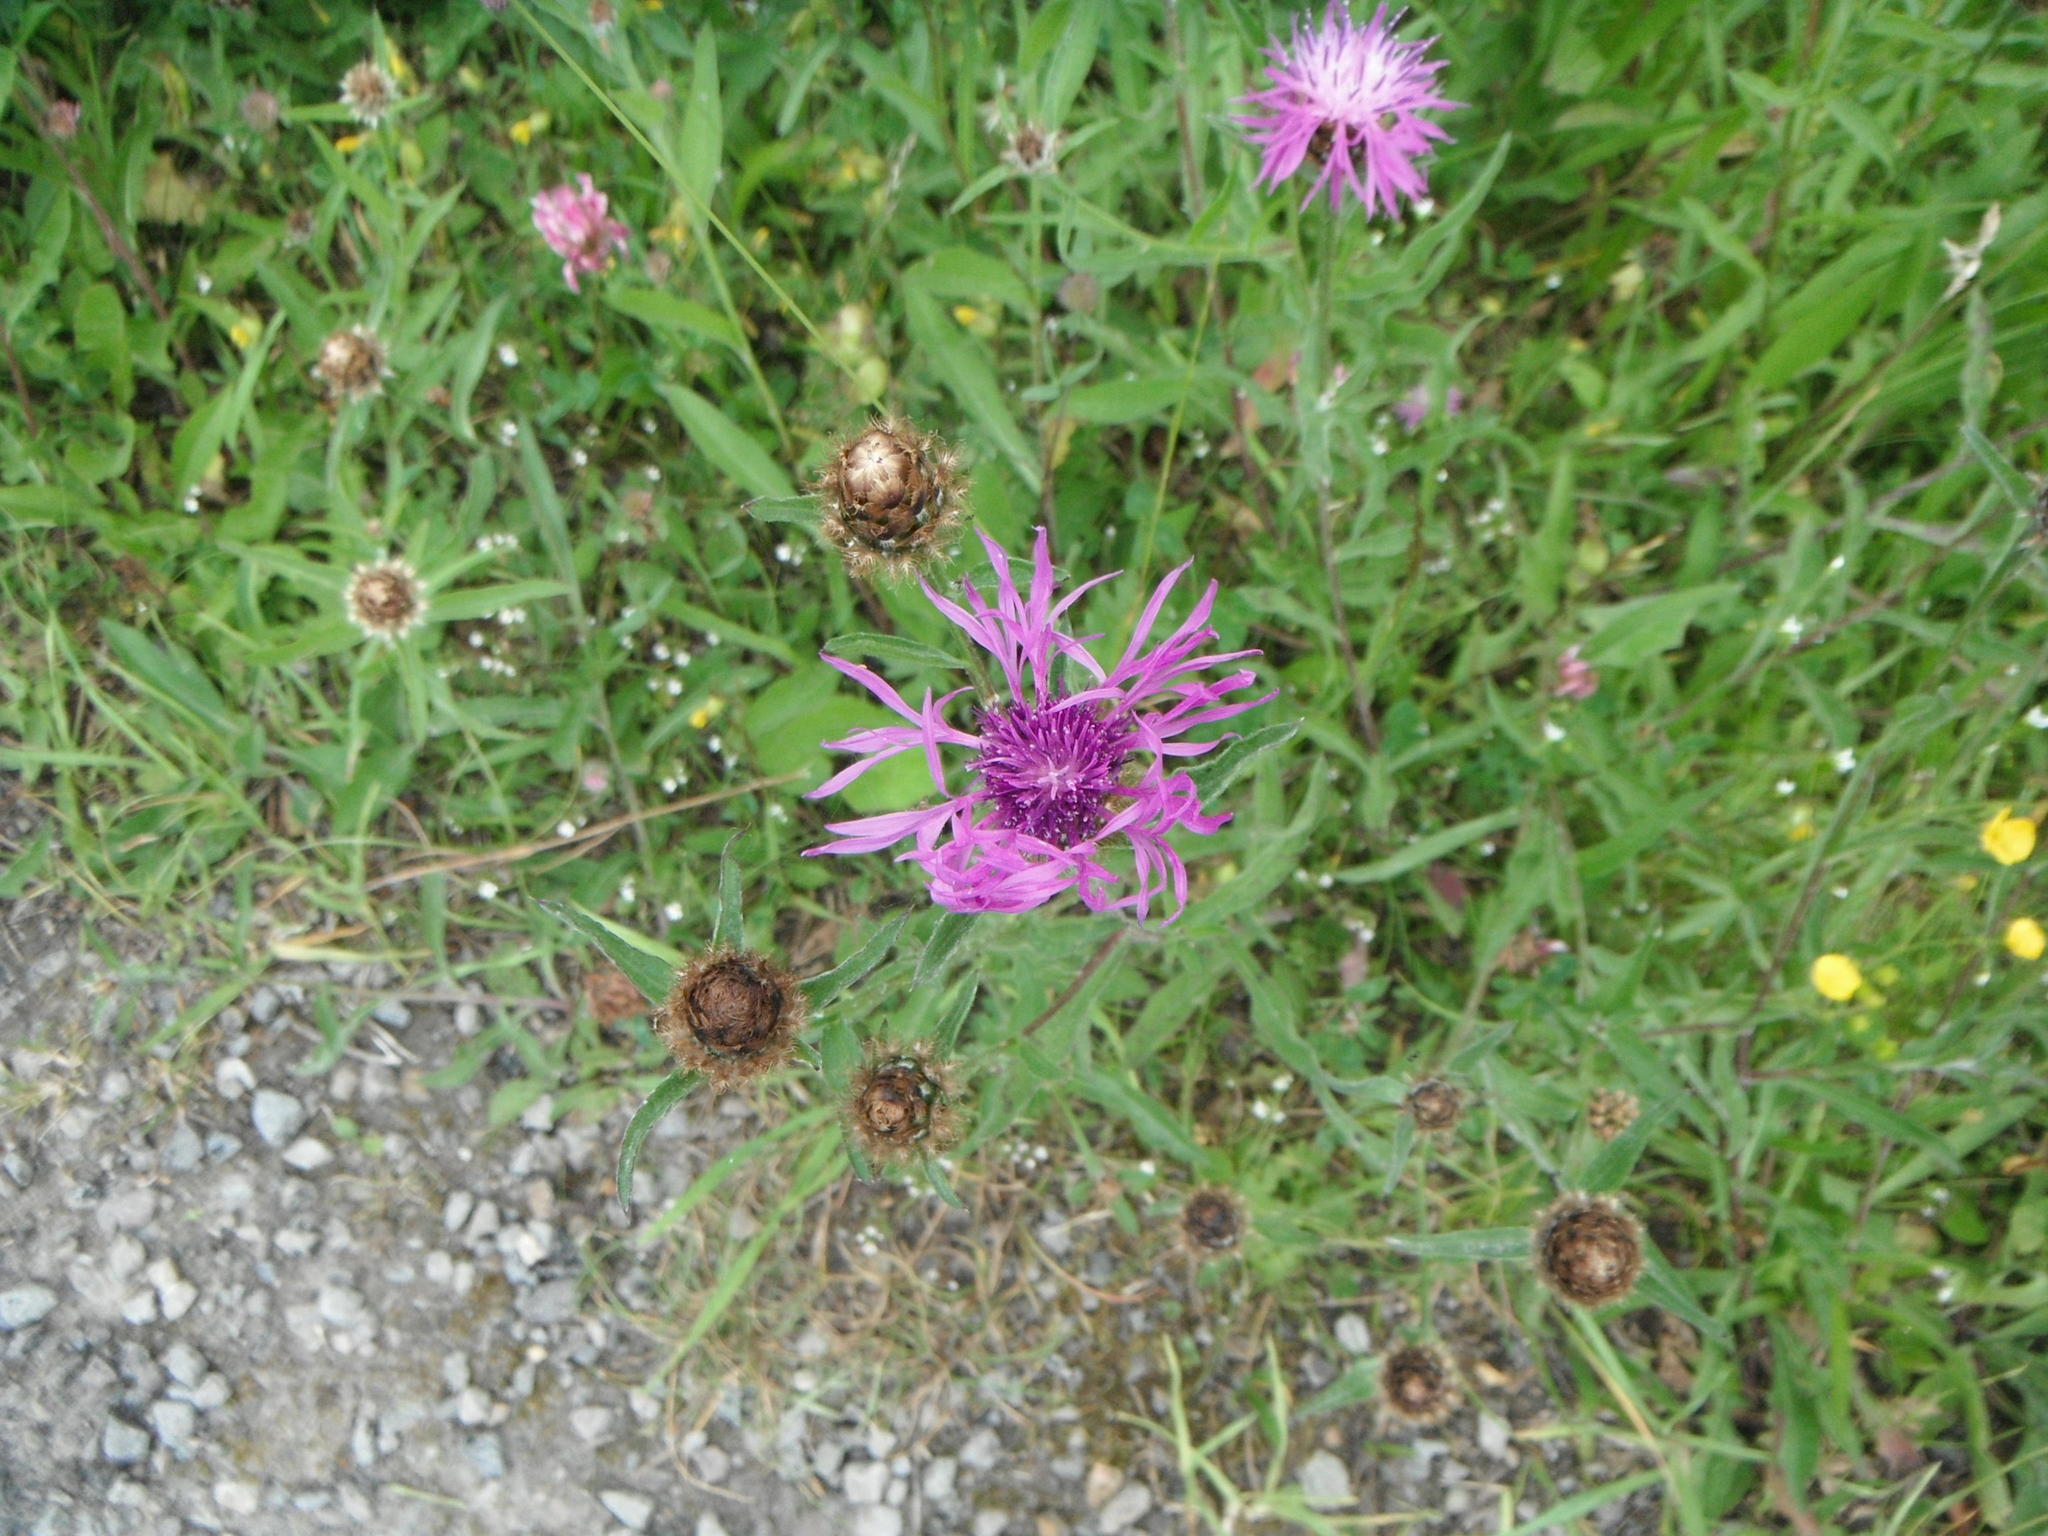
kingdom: Plantae
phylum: Tracheophyta
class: Magnoliopsida
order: Asterales
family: Asteraceae
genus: Centaurea
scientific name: Centaurea jacea
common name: Brown knapweed
